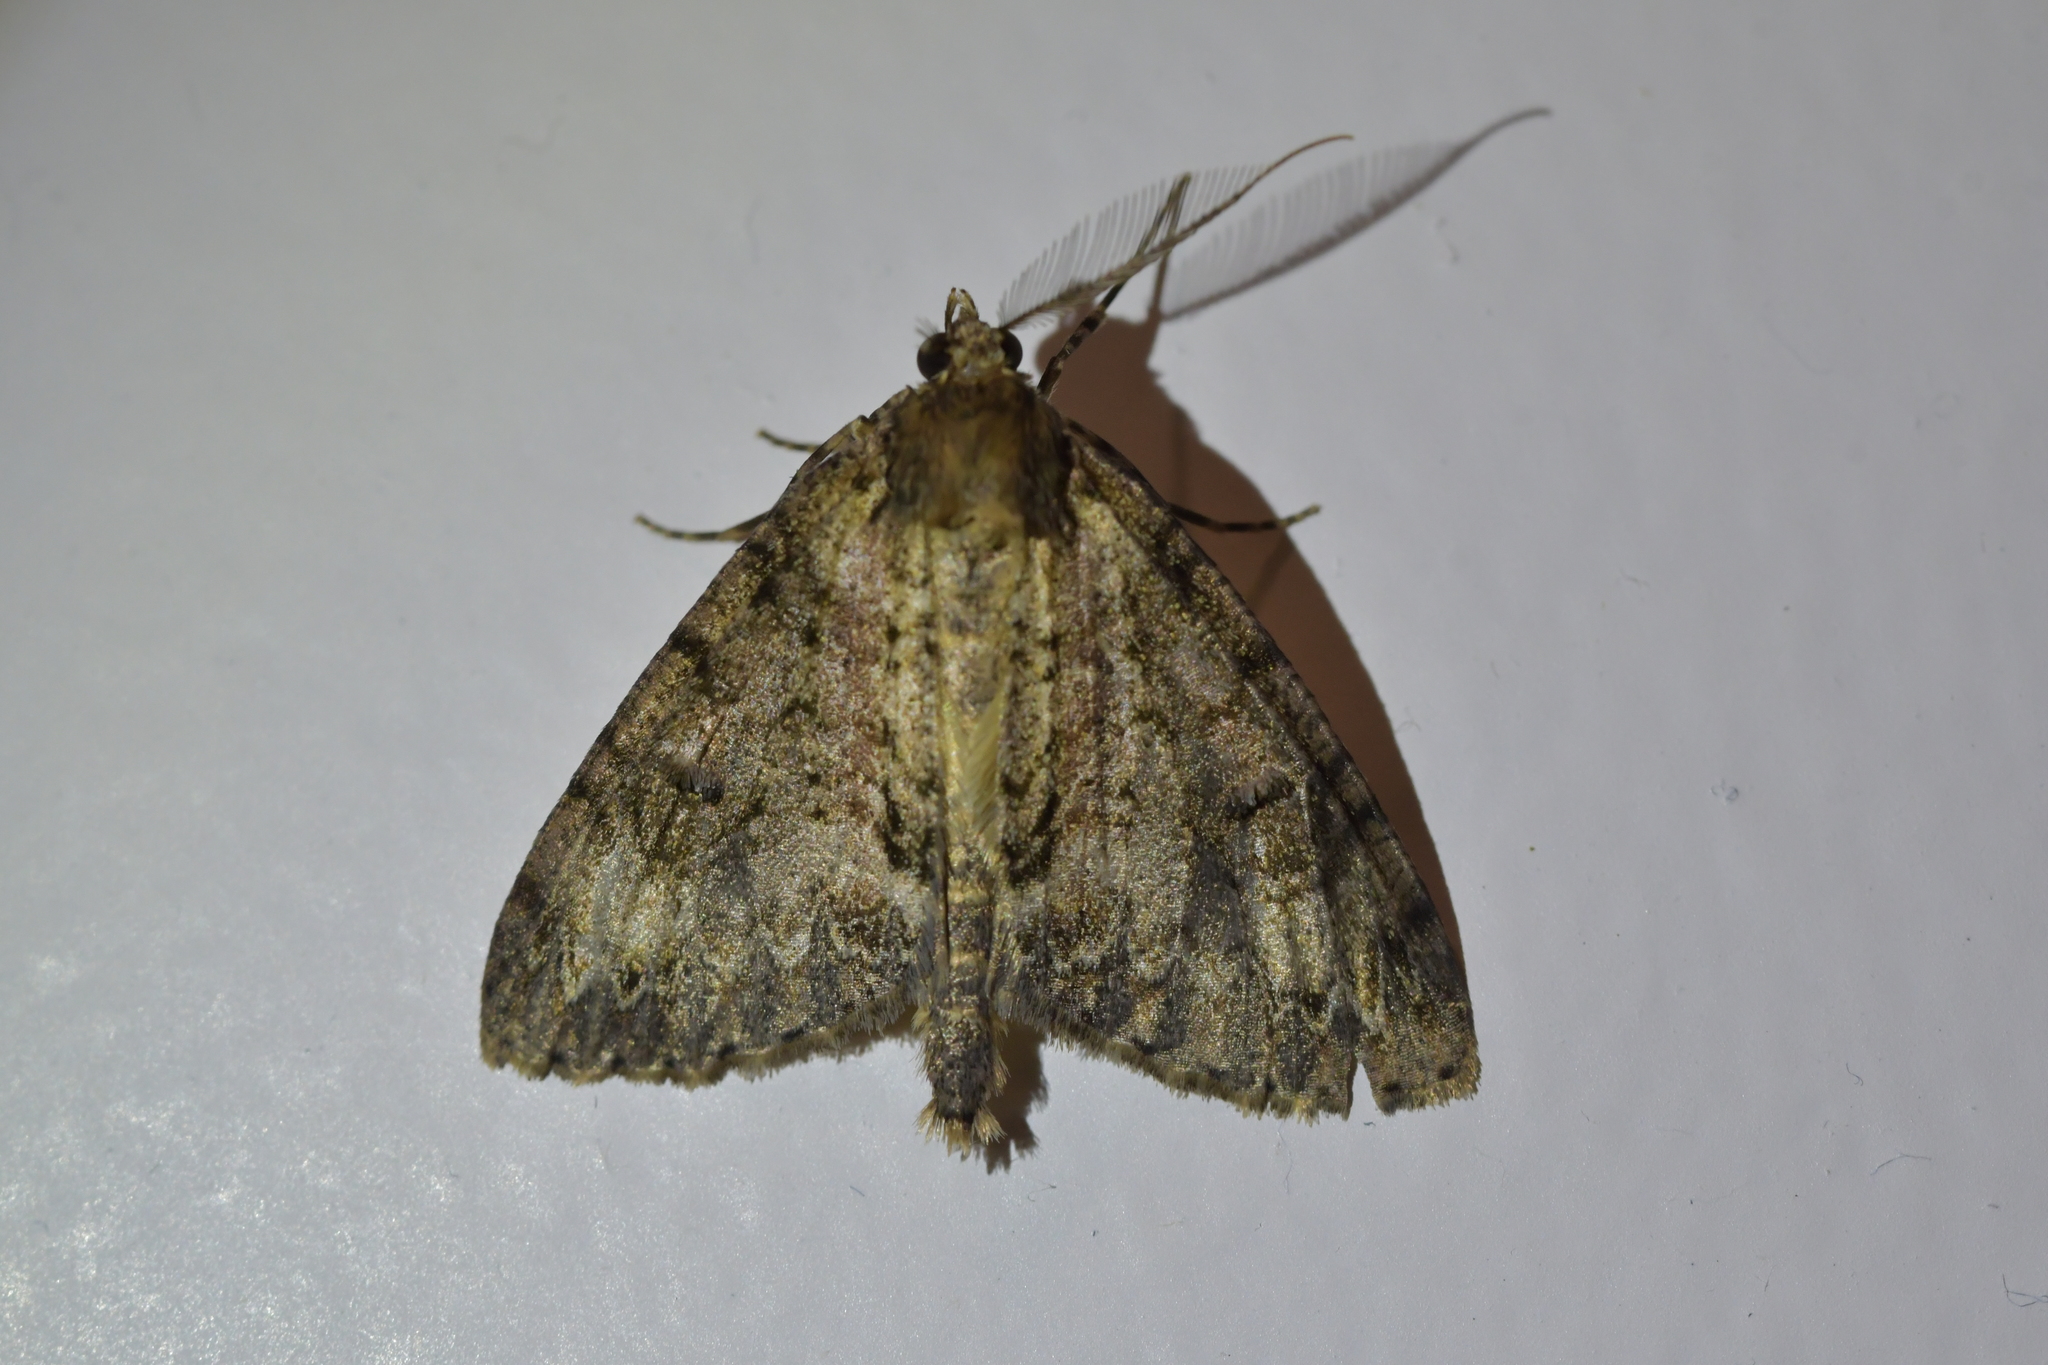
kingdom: Animalia
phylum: Arthropoda
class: Insecta
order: Lepidoptera
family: Geometridae
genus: Pseudocoremia
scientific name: Pseudocoremia suavis
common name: Common forest looper
